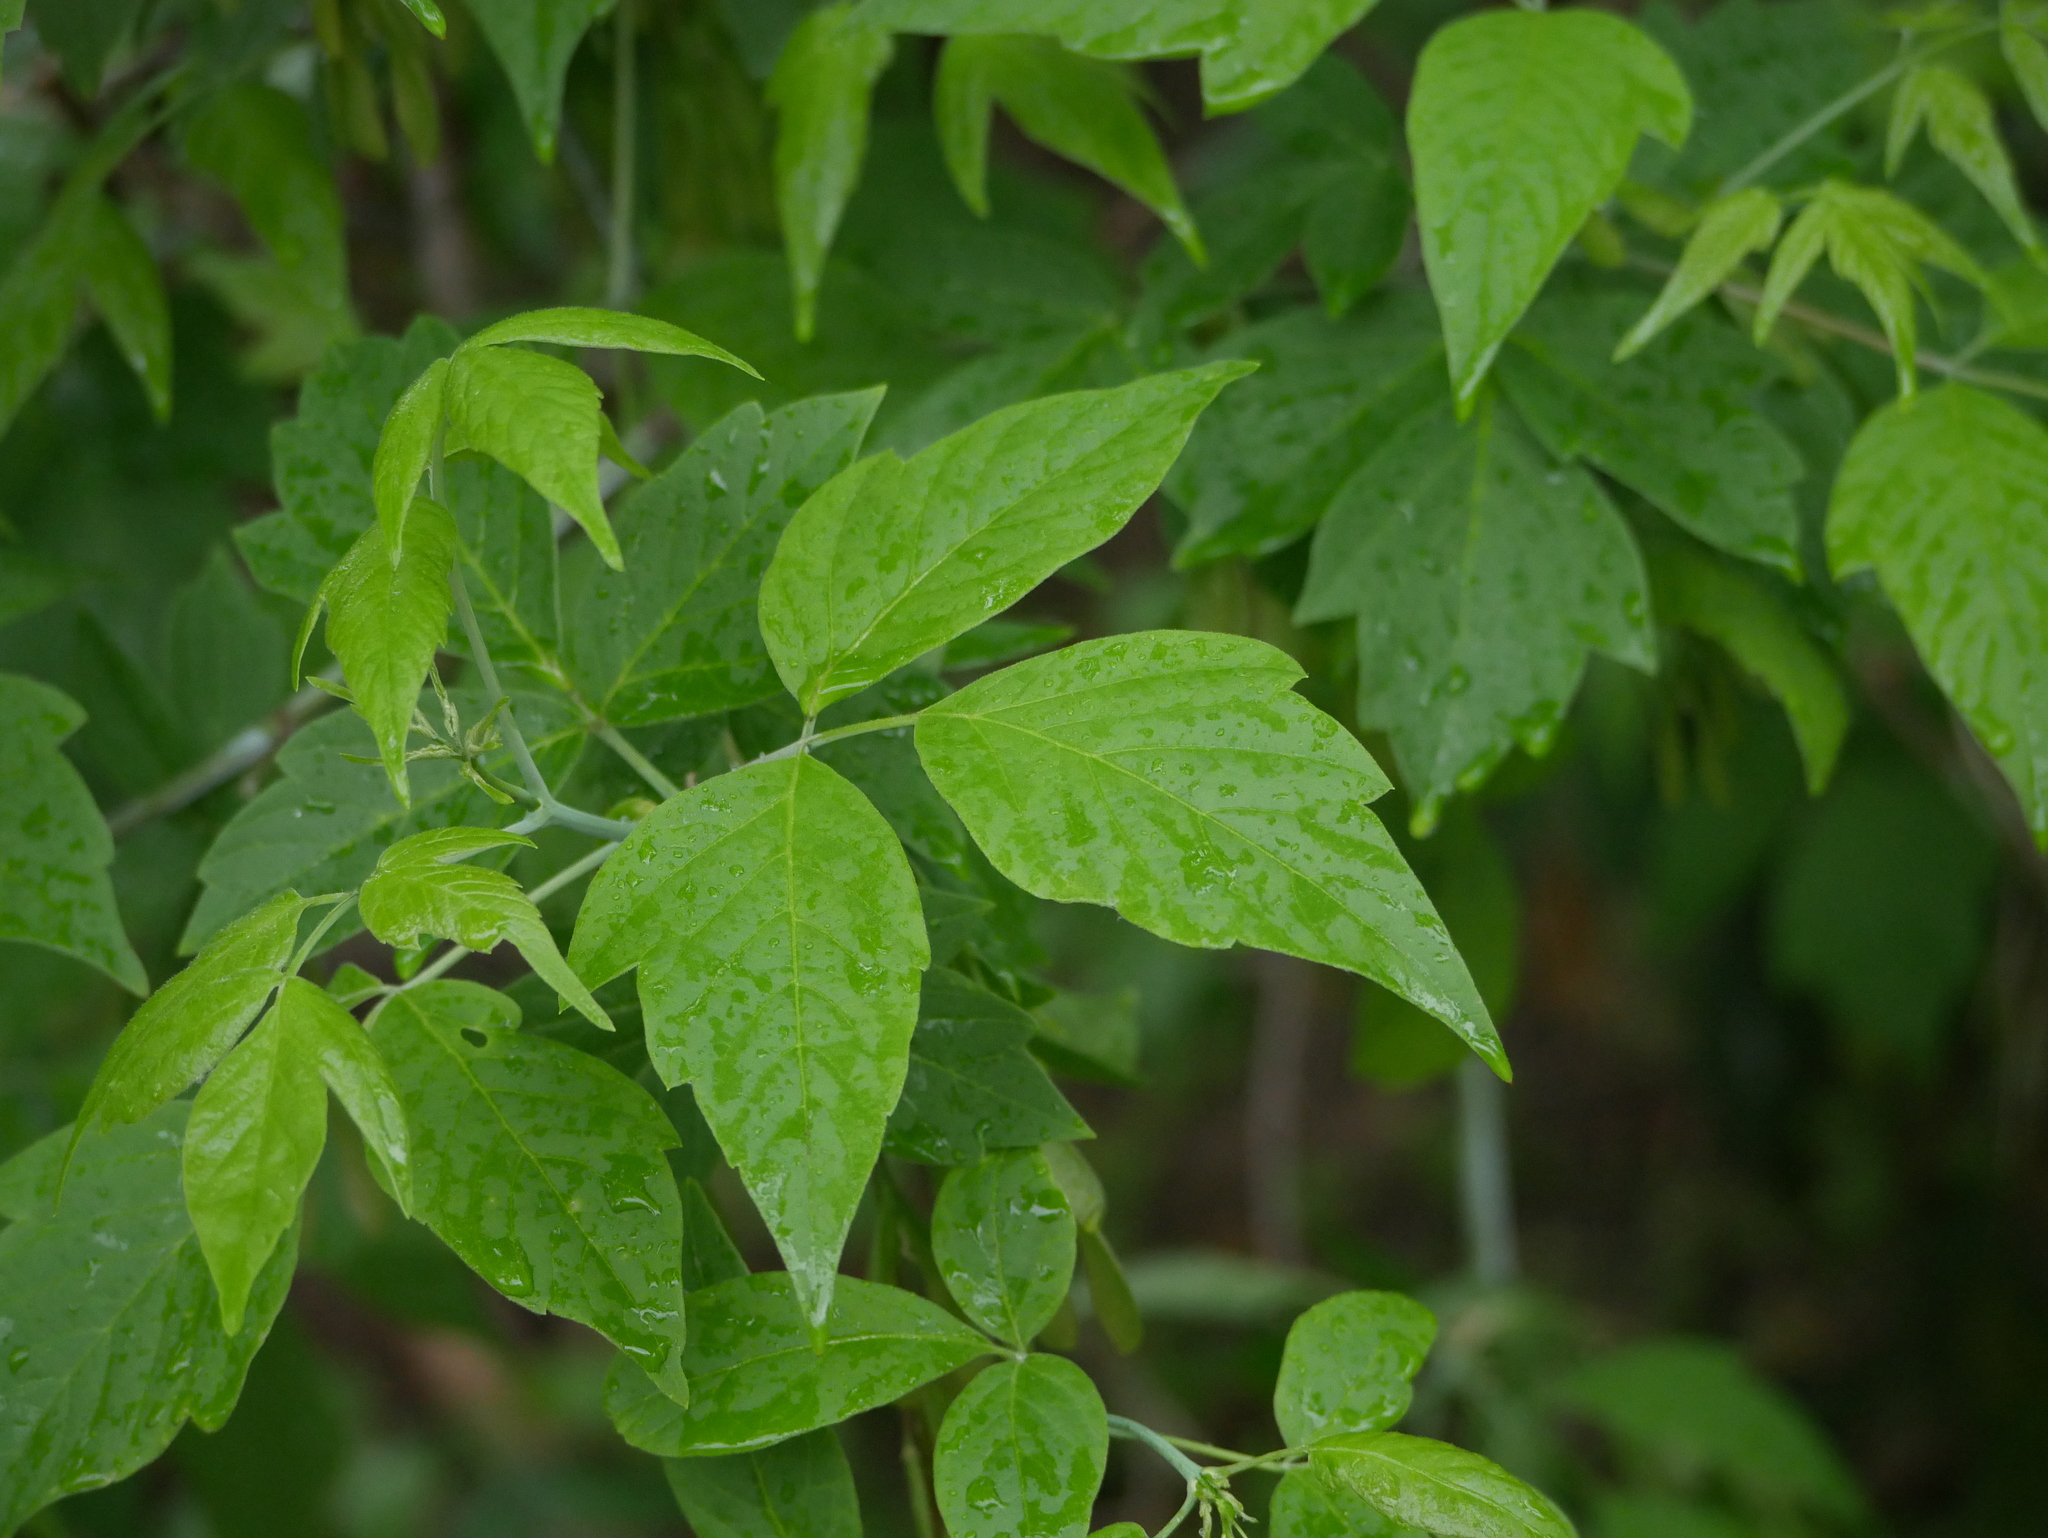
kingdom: Plantae
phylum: Tracheophyta
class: Magnoliopsida
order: Sapindales
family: Sapindaceae
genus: Acer
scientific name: Acer negundo
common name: Ashleaf maple
